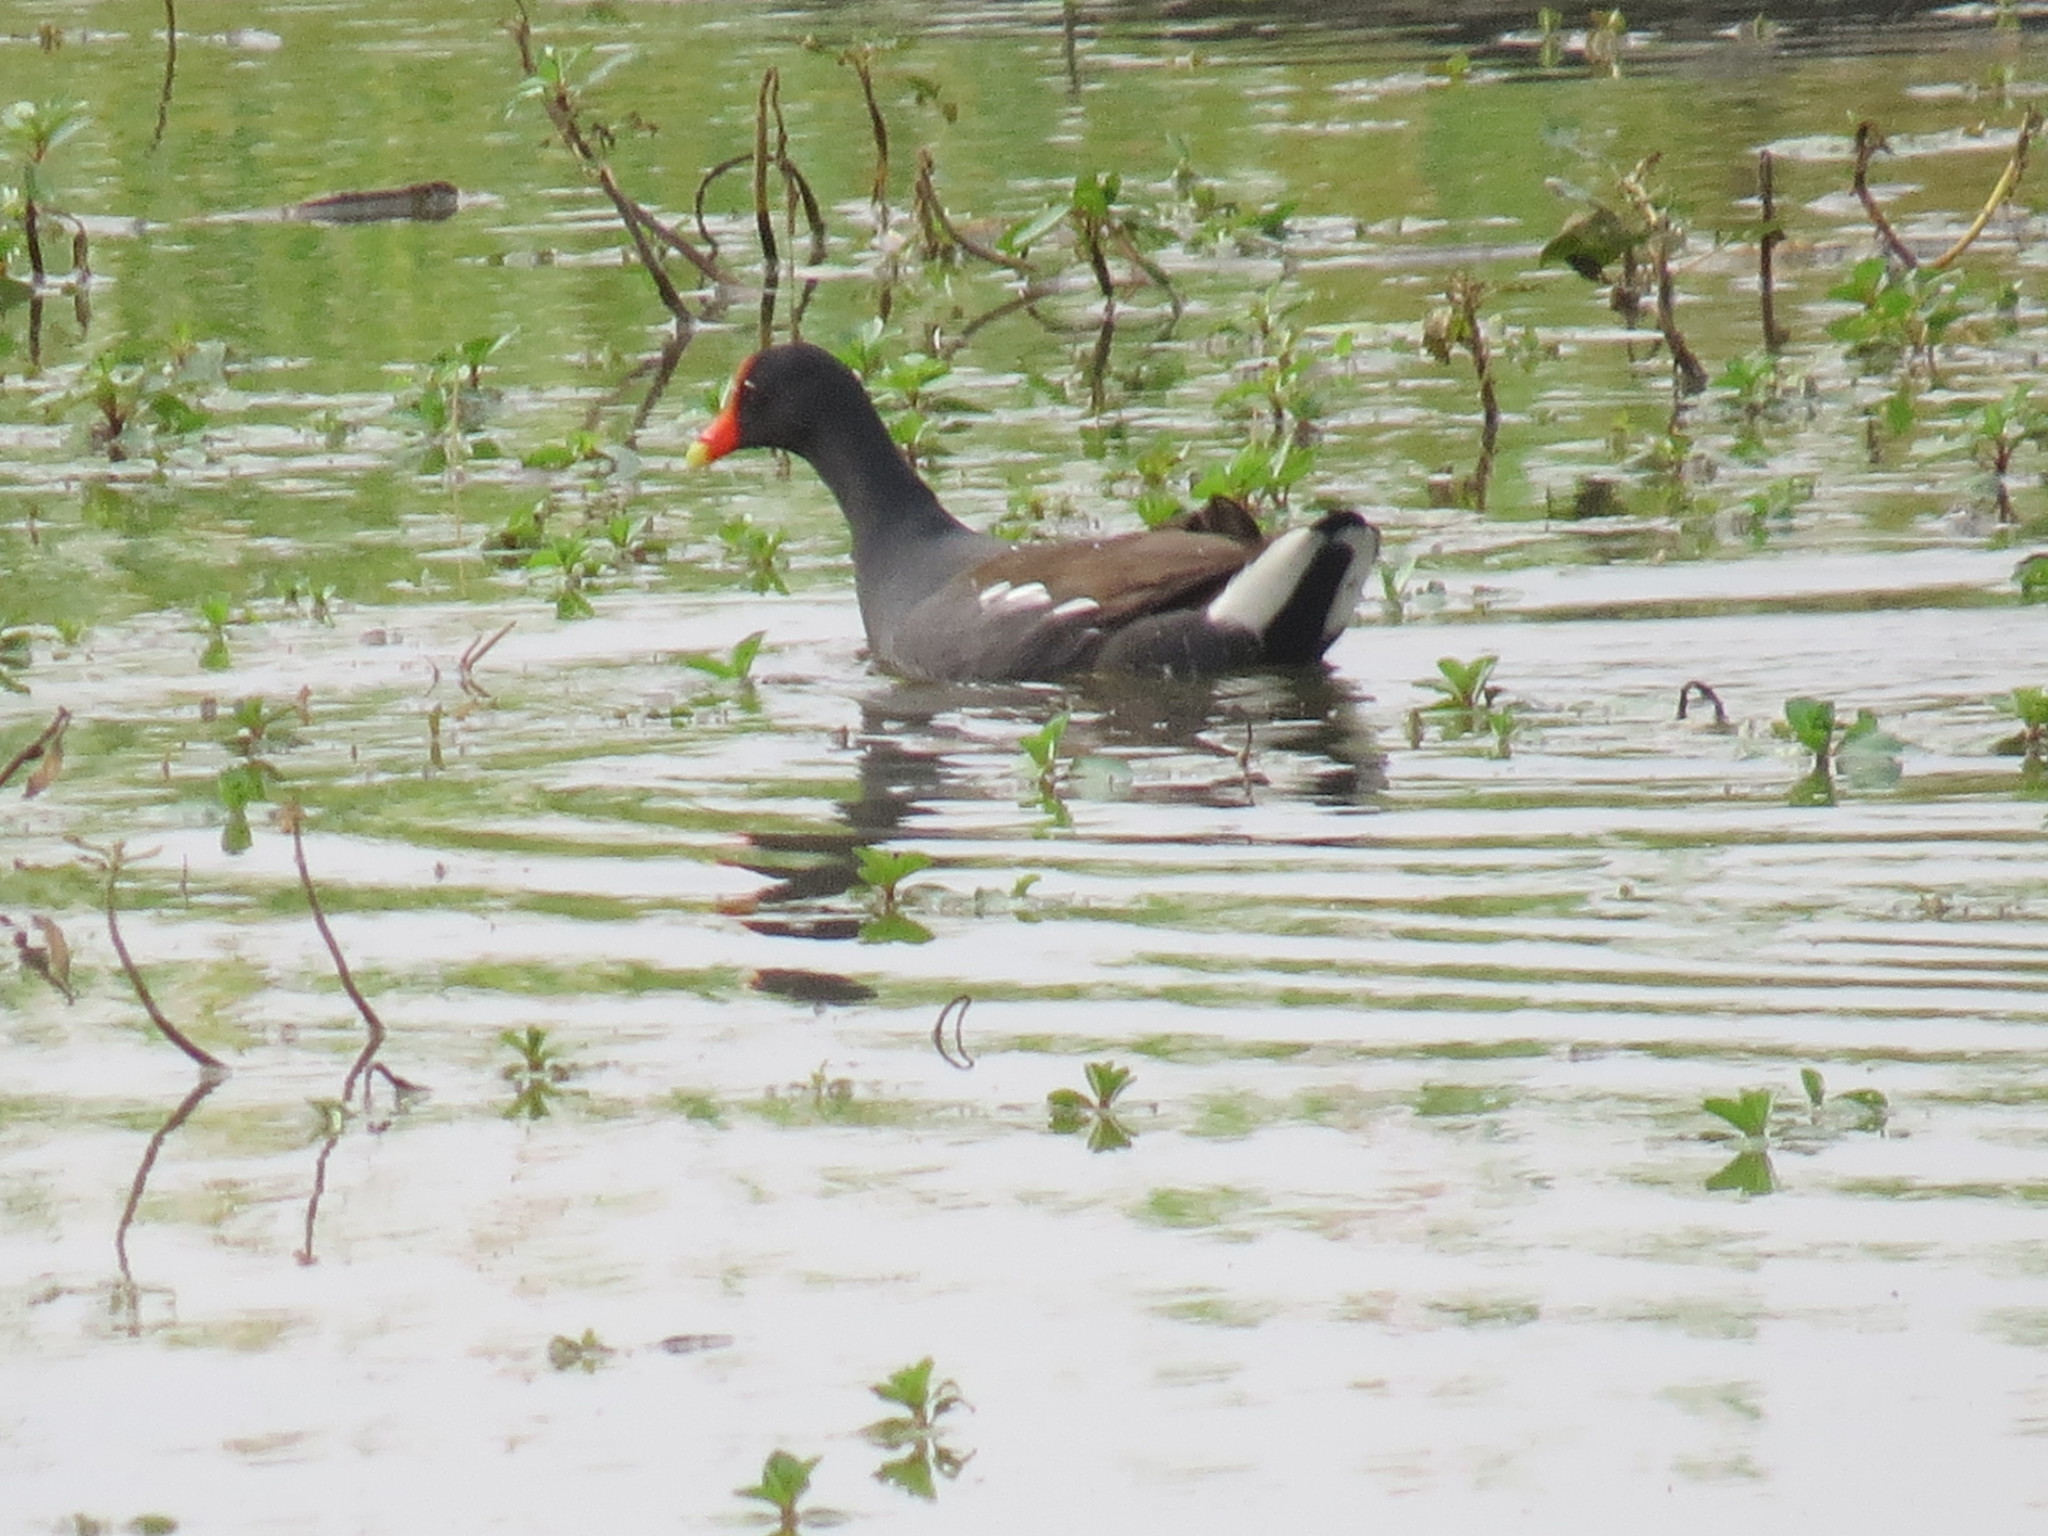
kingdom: Animalia
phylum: Chordata
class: Aves
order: Gruiformes
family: Rallidae
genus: Gallinula
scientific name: Gallinula chloropus
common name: Common moorhen
